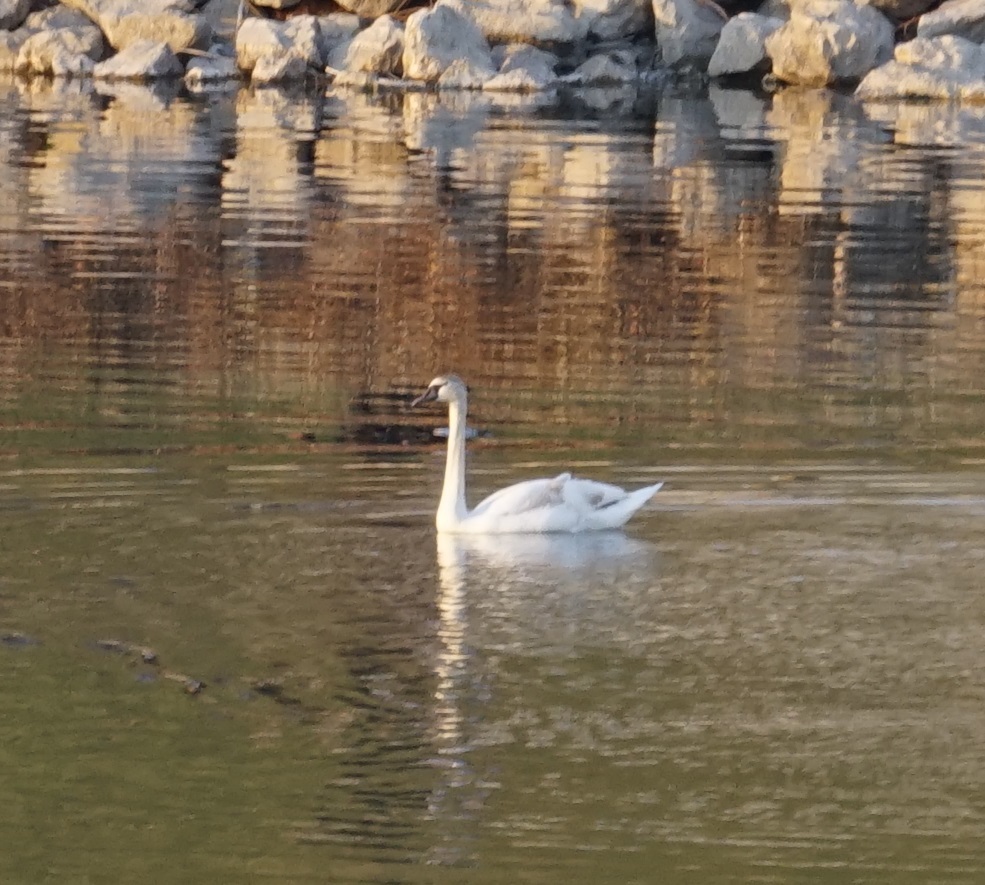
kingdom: Animalia
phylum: Chordata
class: Aves
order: Anseriformes
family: Anatidae
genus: Cygnus
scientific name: Cygnus olor
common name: Mute swan
